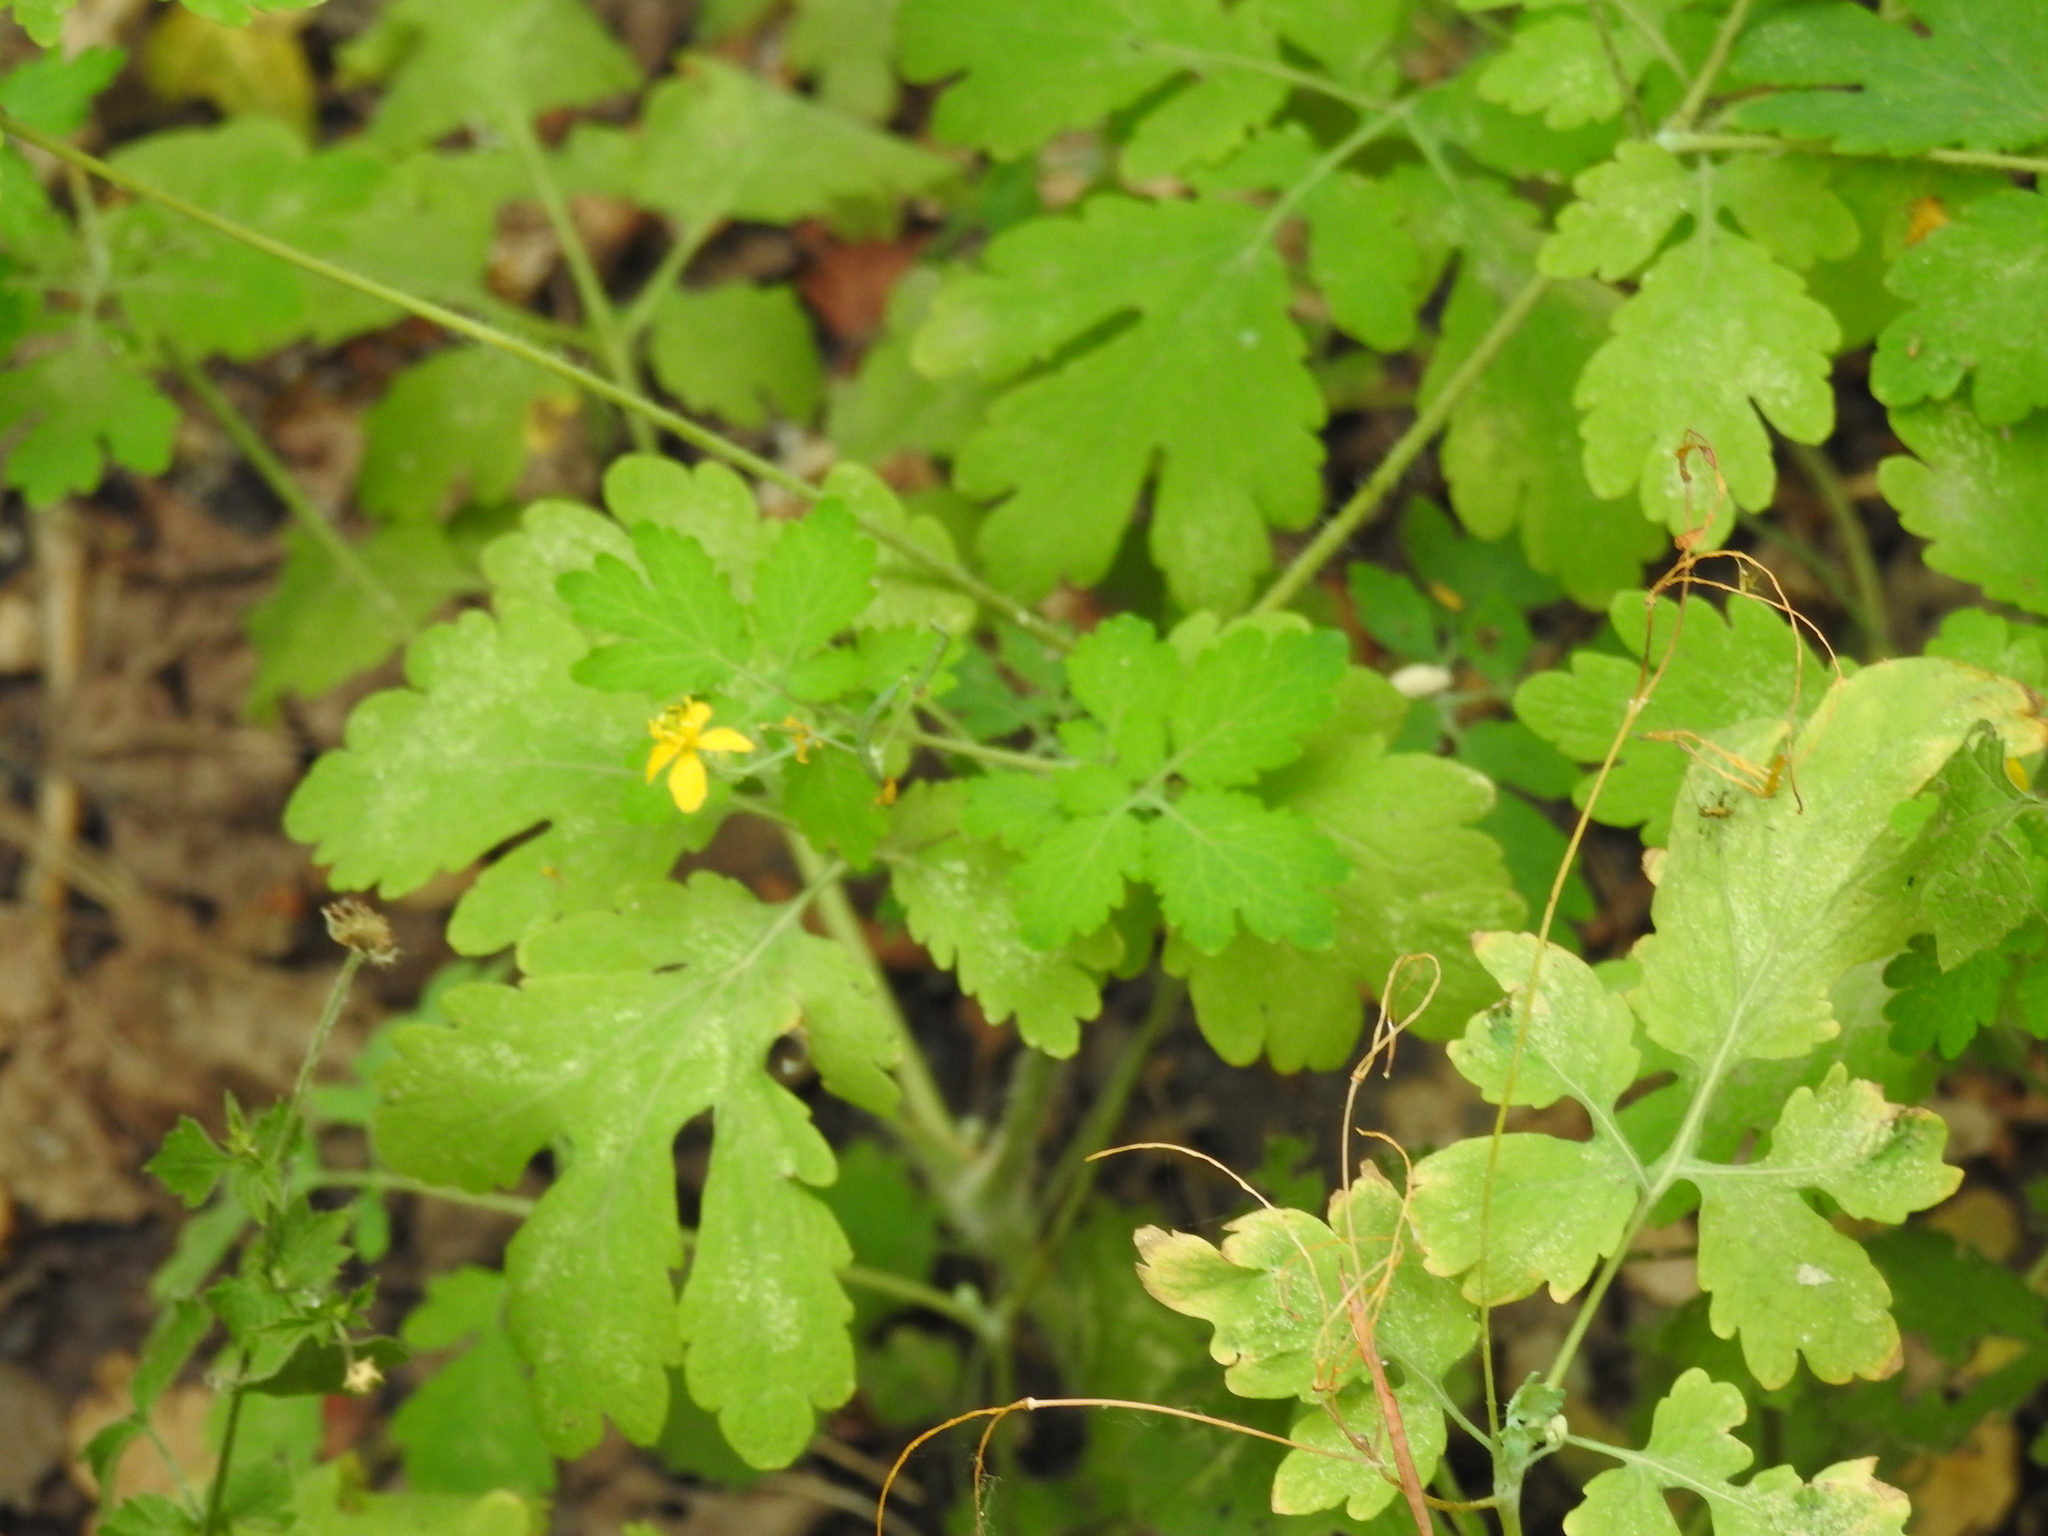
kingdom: Plantae
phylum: Tracheophyta
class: Magnoliopsida
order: Ranunculales
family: Papaveraceae
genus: Chelidonium
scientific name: Chelidonium majus
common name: Greater celandine
